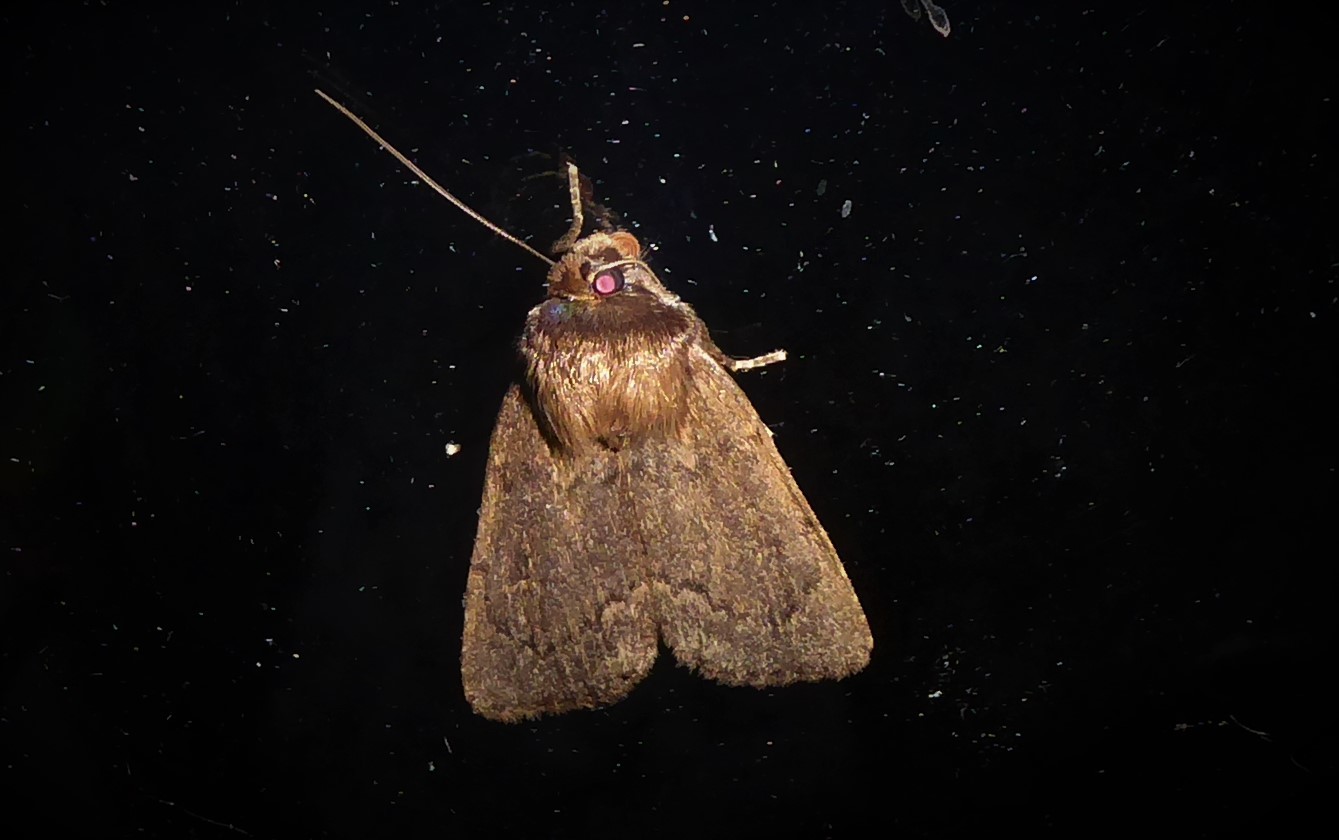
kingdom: Animalia
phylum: Arthropoda
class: Insecta
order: Lepidoptera
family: Noctuidae
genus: Bityla
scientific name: Bityla defigurata
